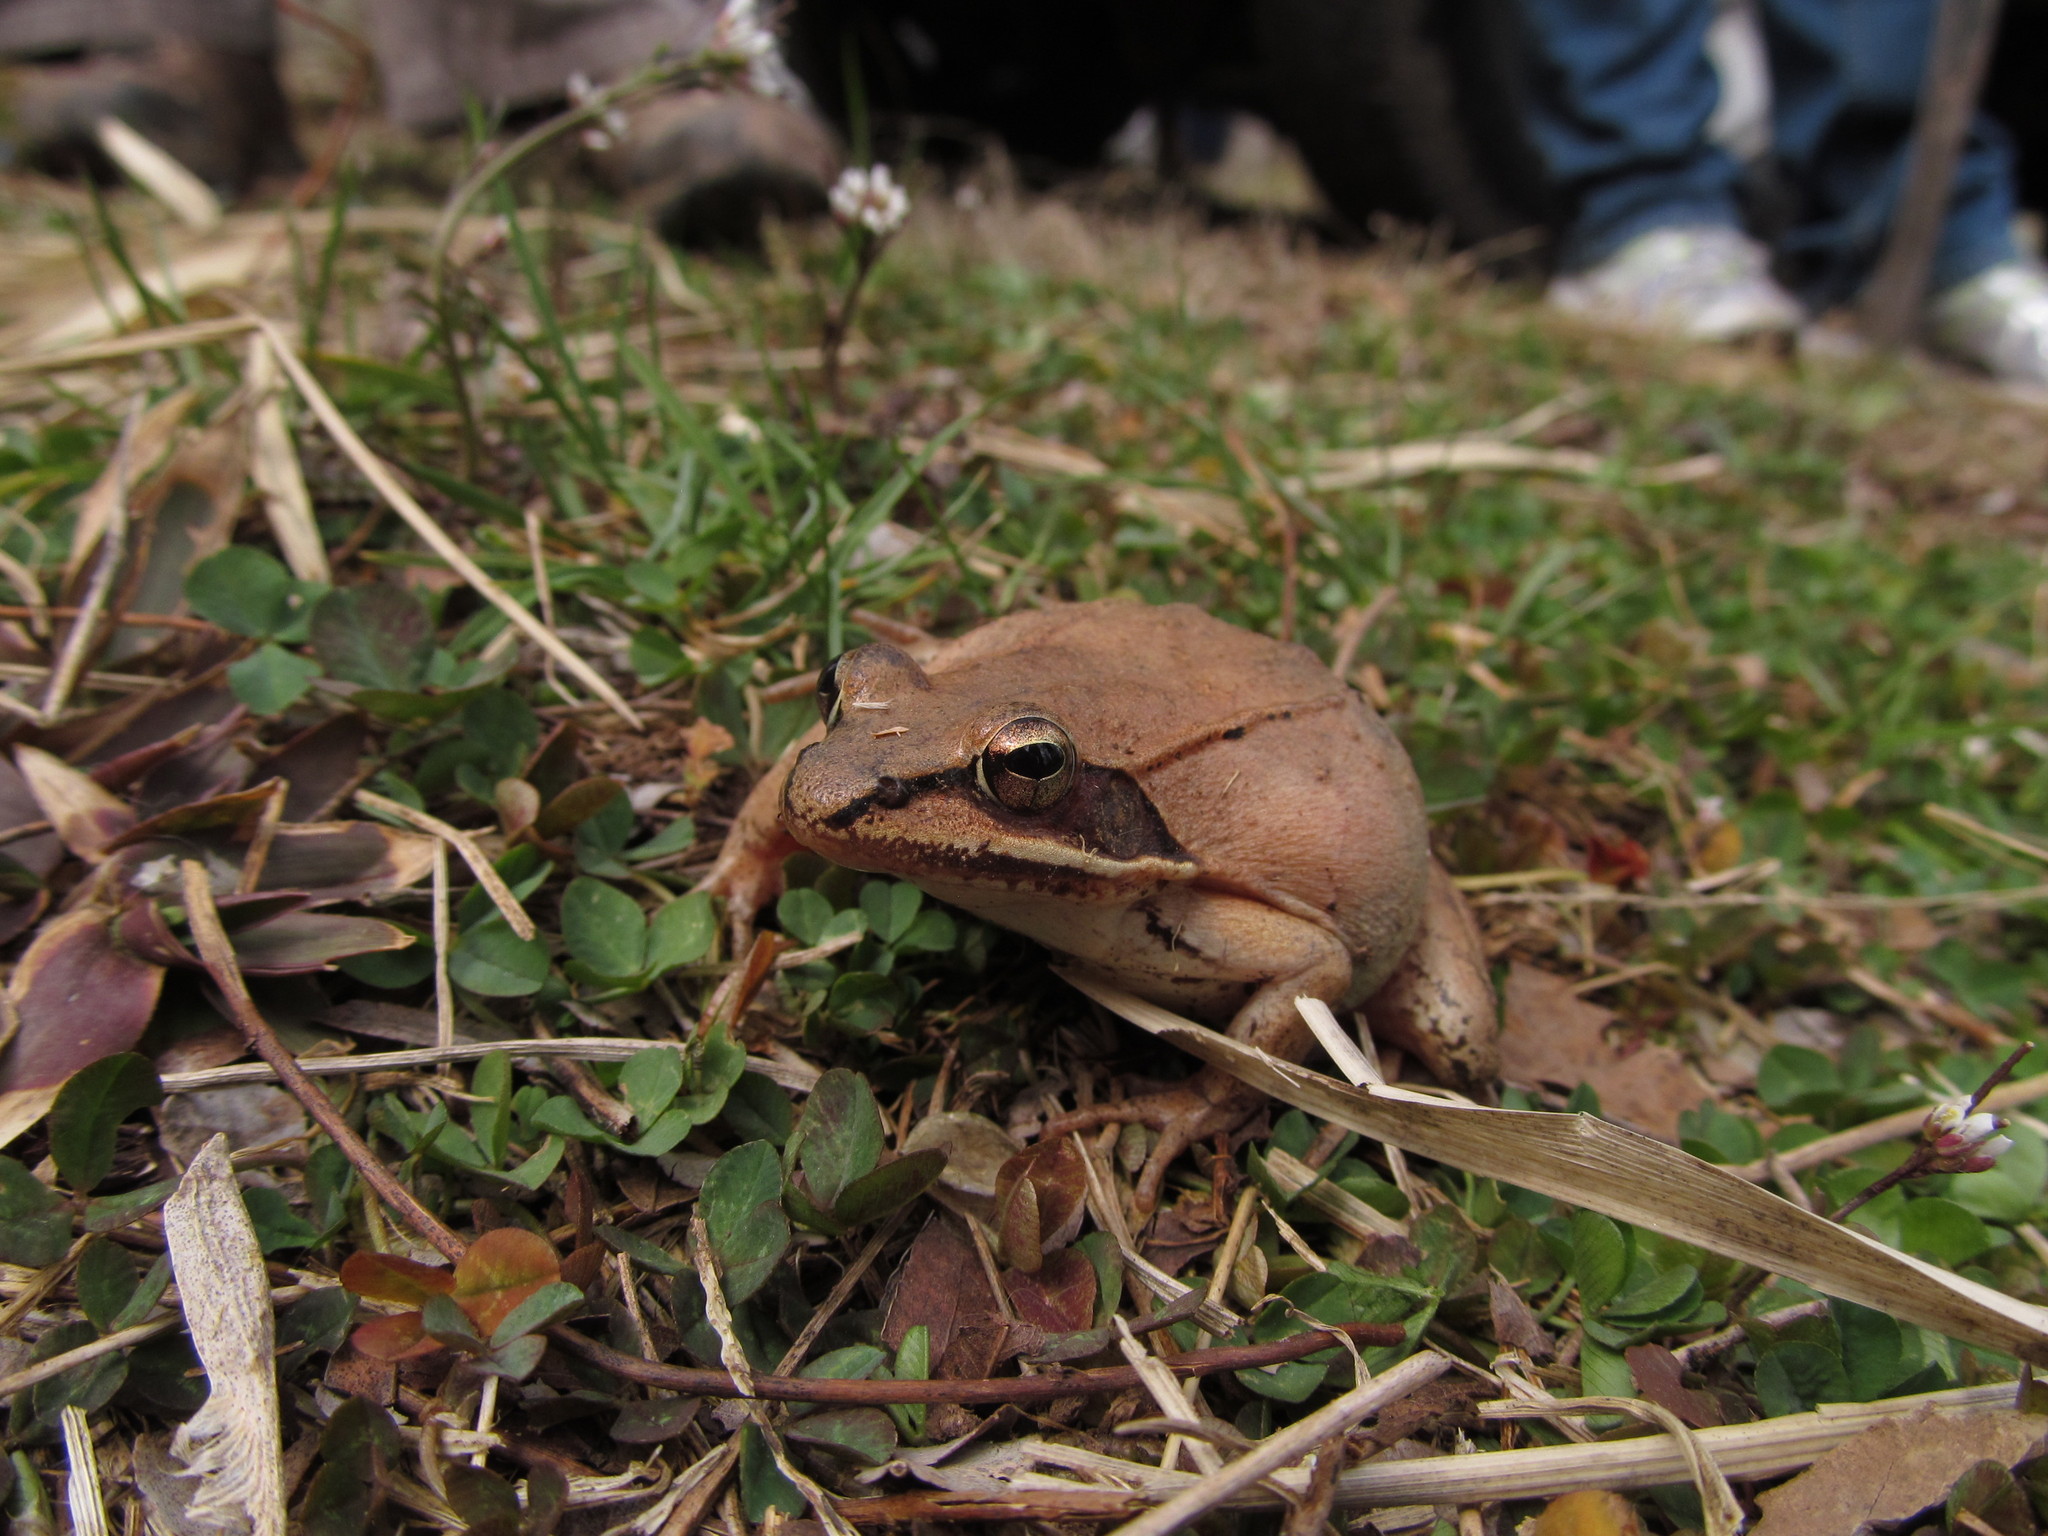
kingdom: Animalia
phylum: Chordata
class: Amphibia
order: Anura
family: Ranidae
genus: Lithobates
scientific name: Lithobates sylvaticus
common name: Wood frog
